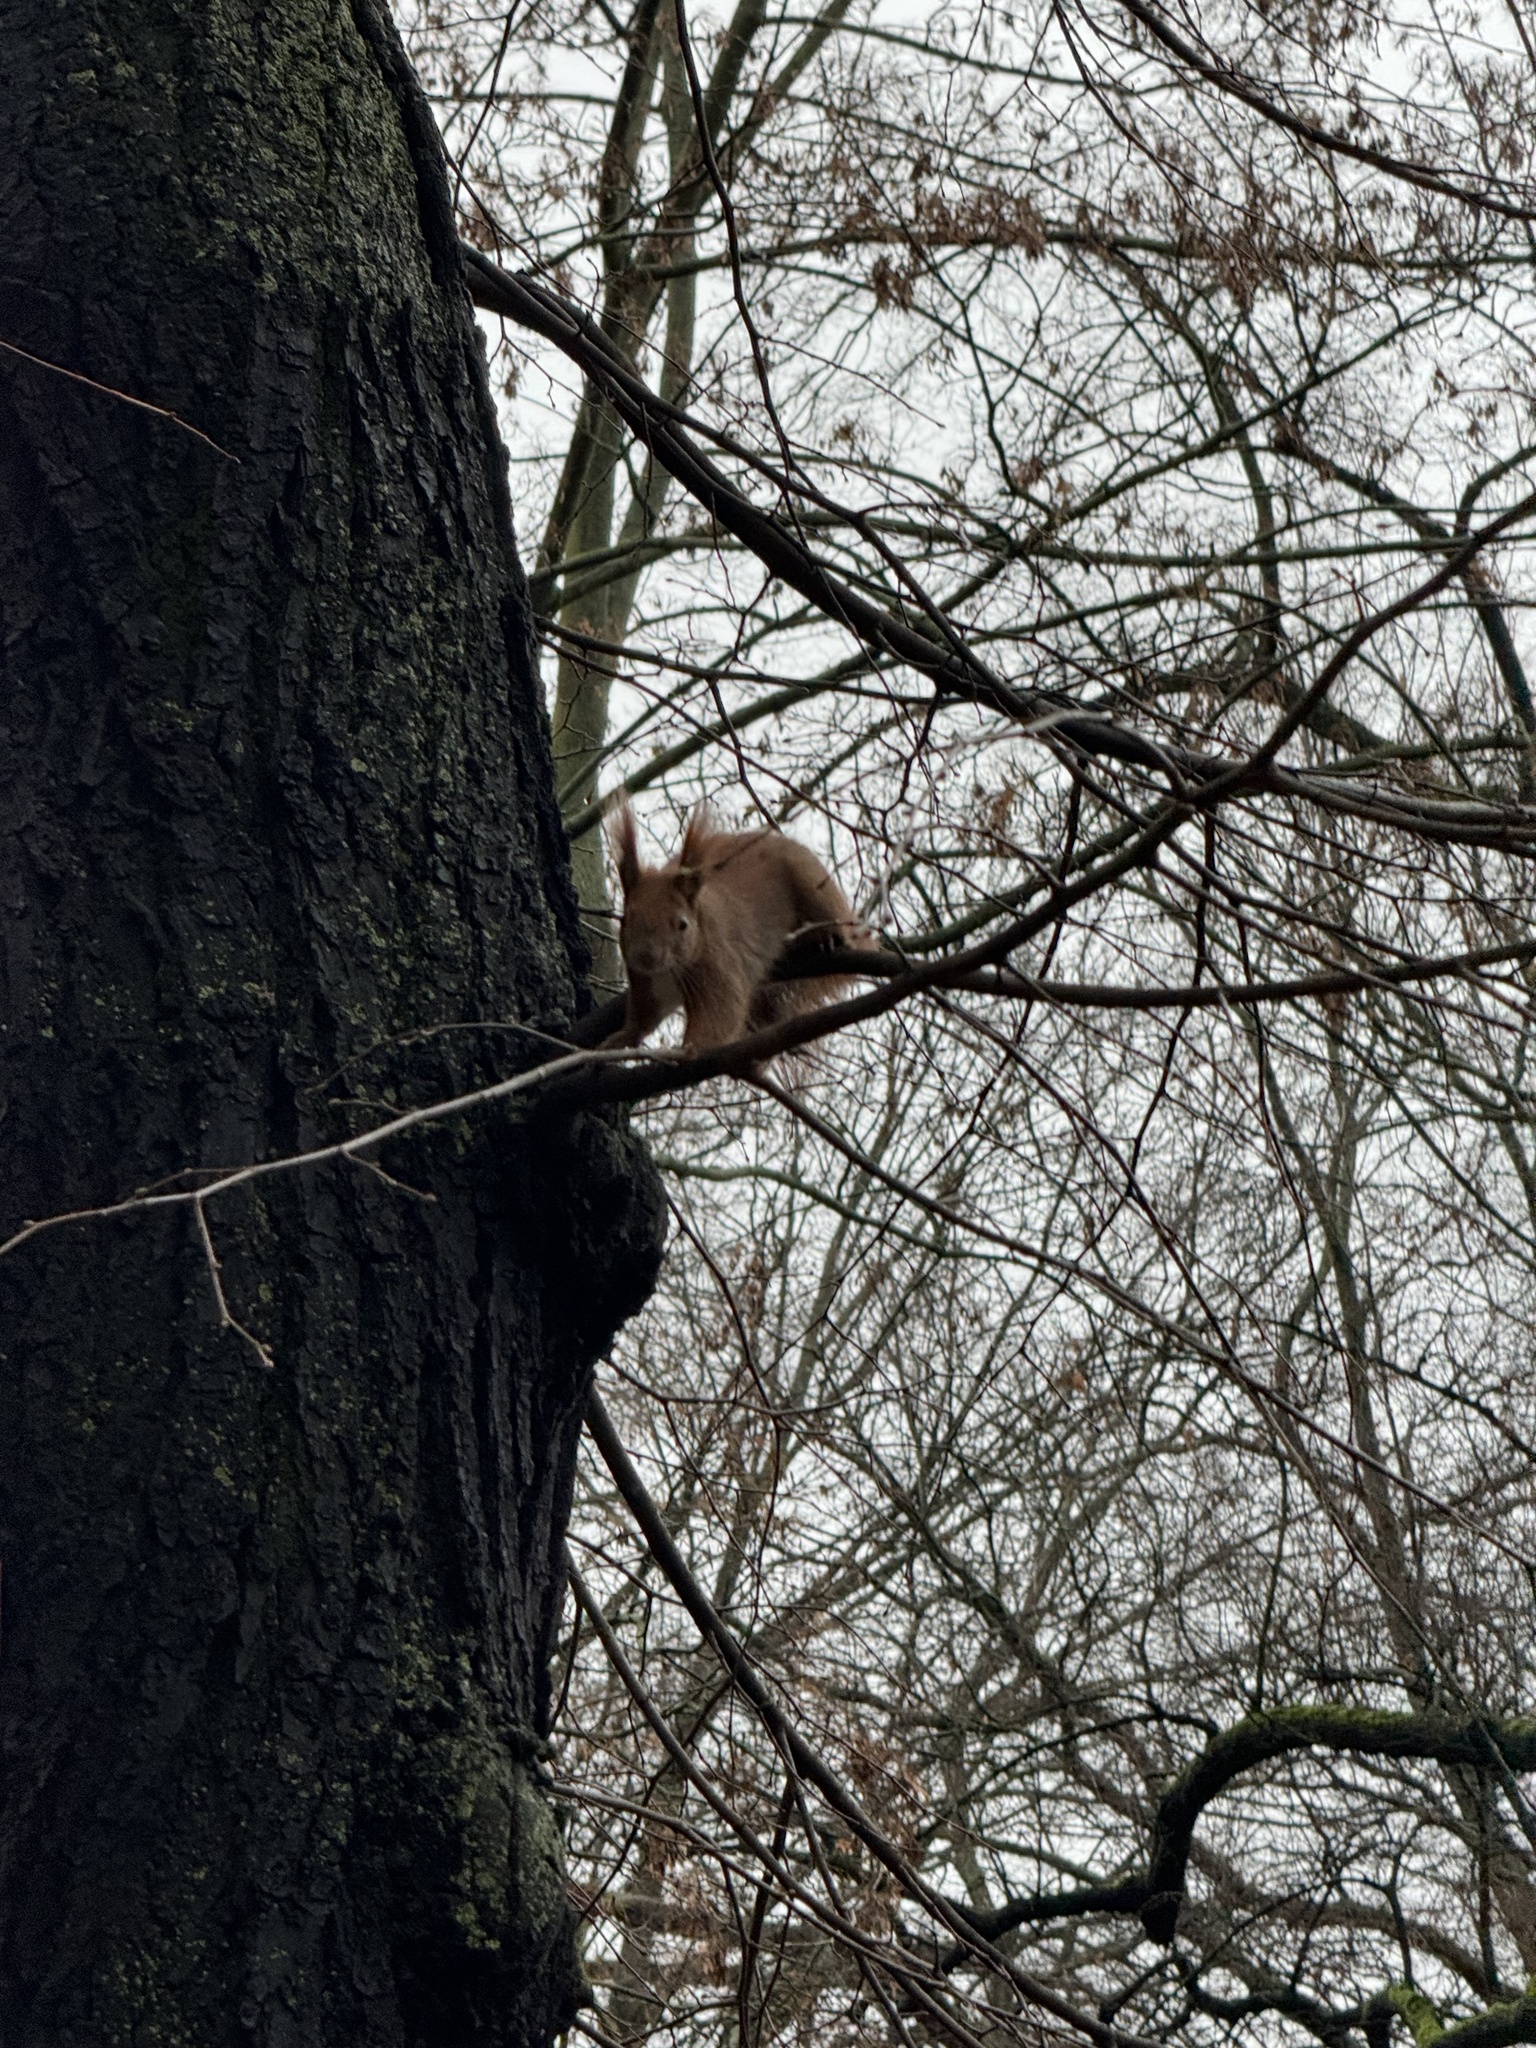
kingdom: Animalia
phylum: Chordata
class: Mammalia
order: Rodentia
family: Sciuridae
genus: Sciurus
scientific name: Sciurus vulgaris
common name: Eurasian red squirrel
